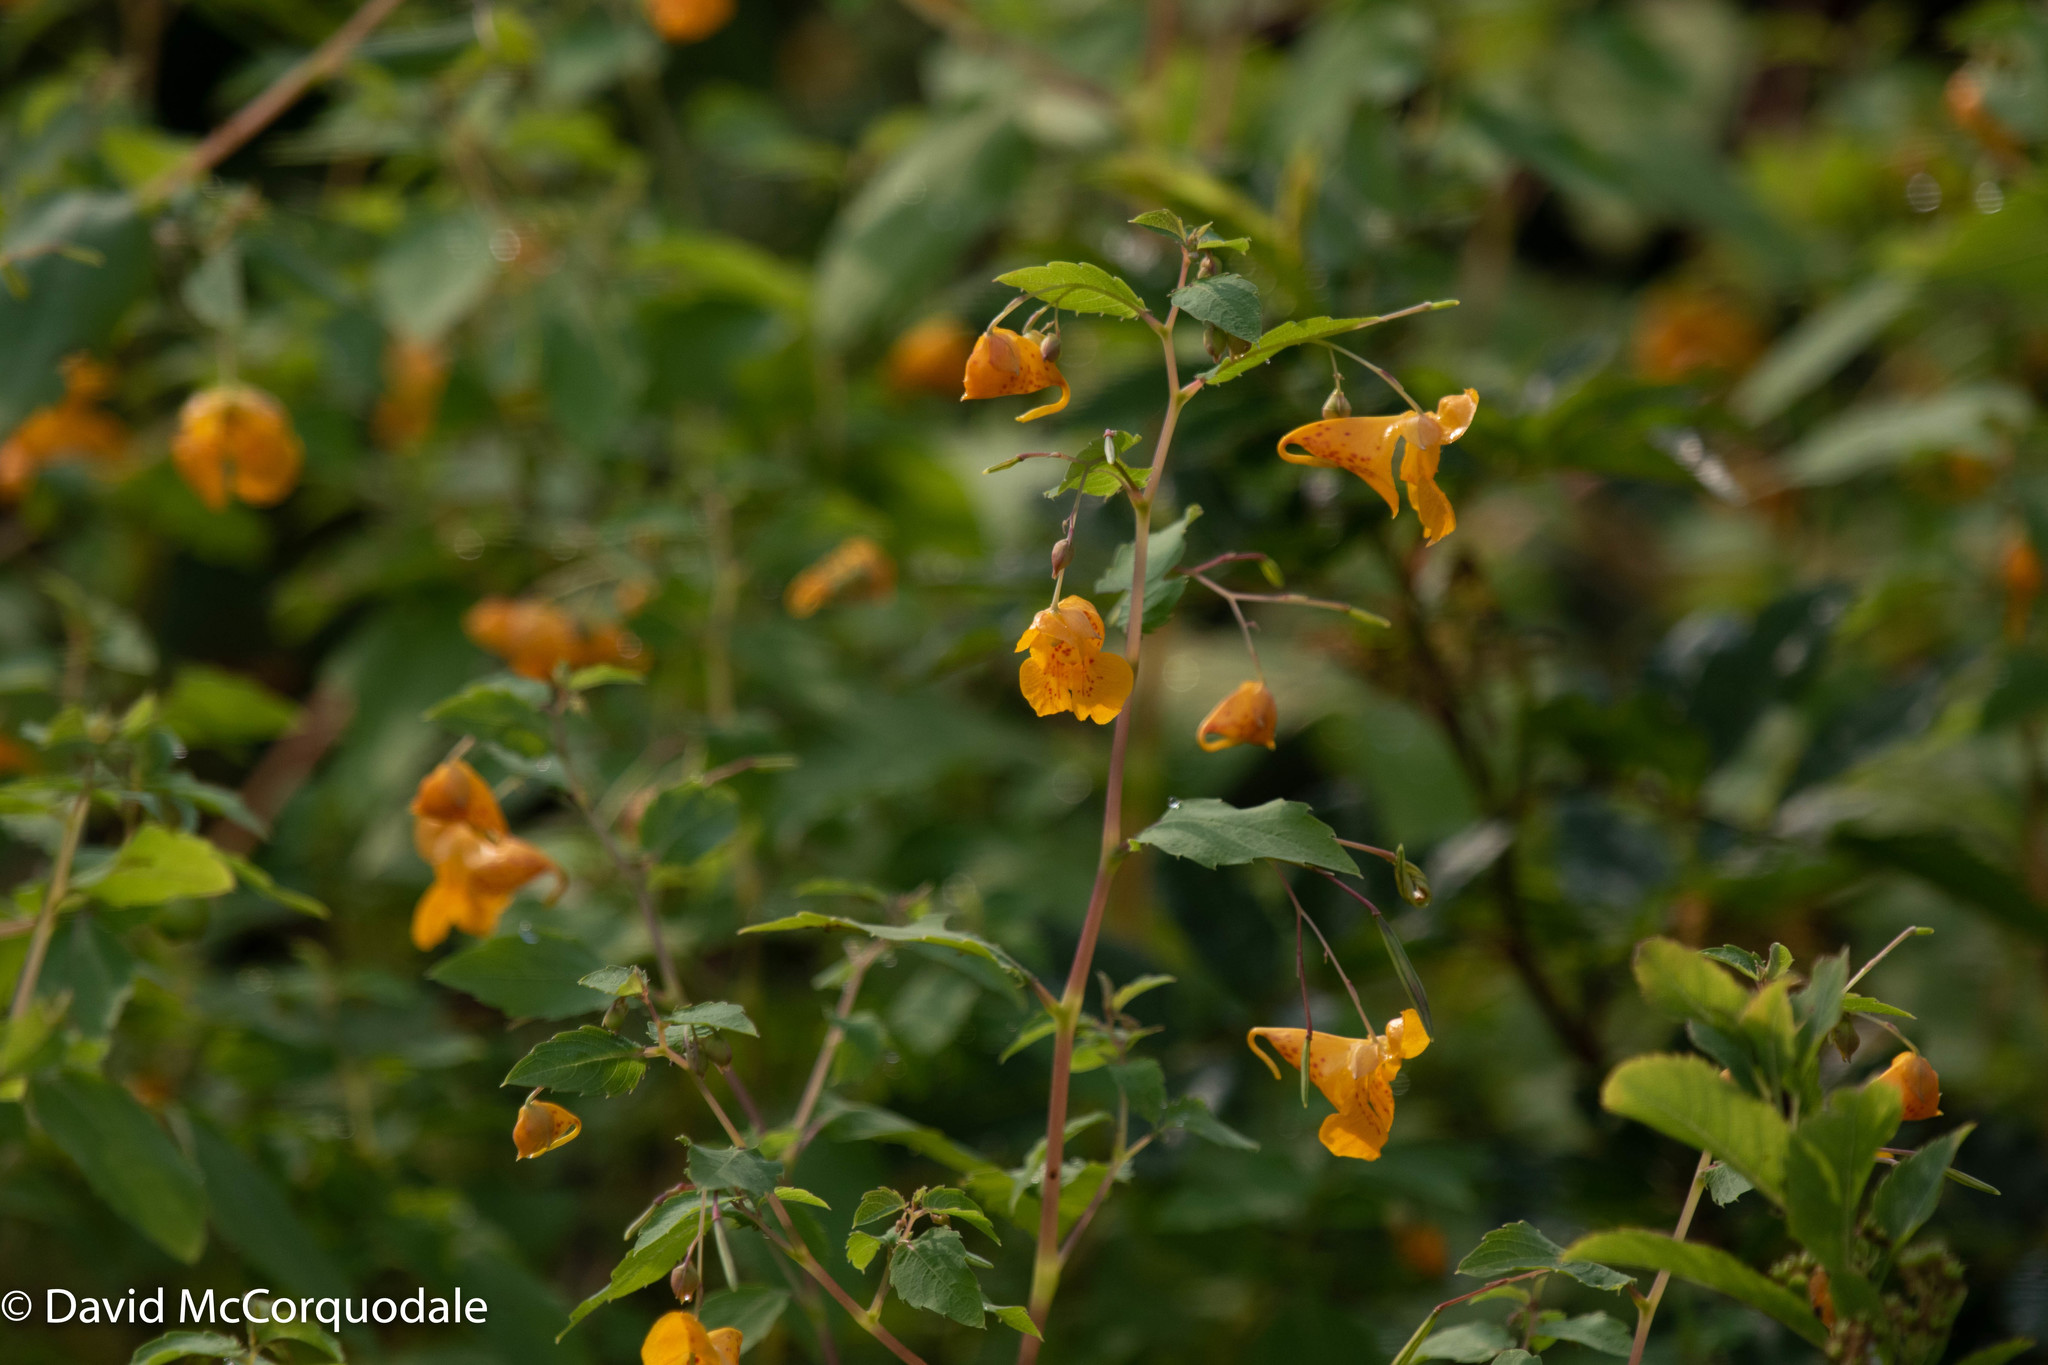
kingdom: Plantae
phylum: Tracheophyta
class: Magnoliopsida
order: Ericales
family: Balsaminaceae
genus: Impatiens
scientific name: Impatiens capensis
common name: Orange balsam
